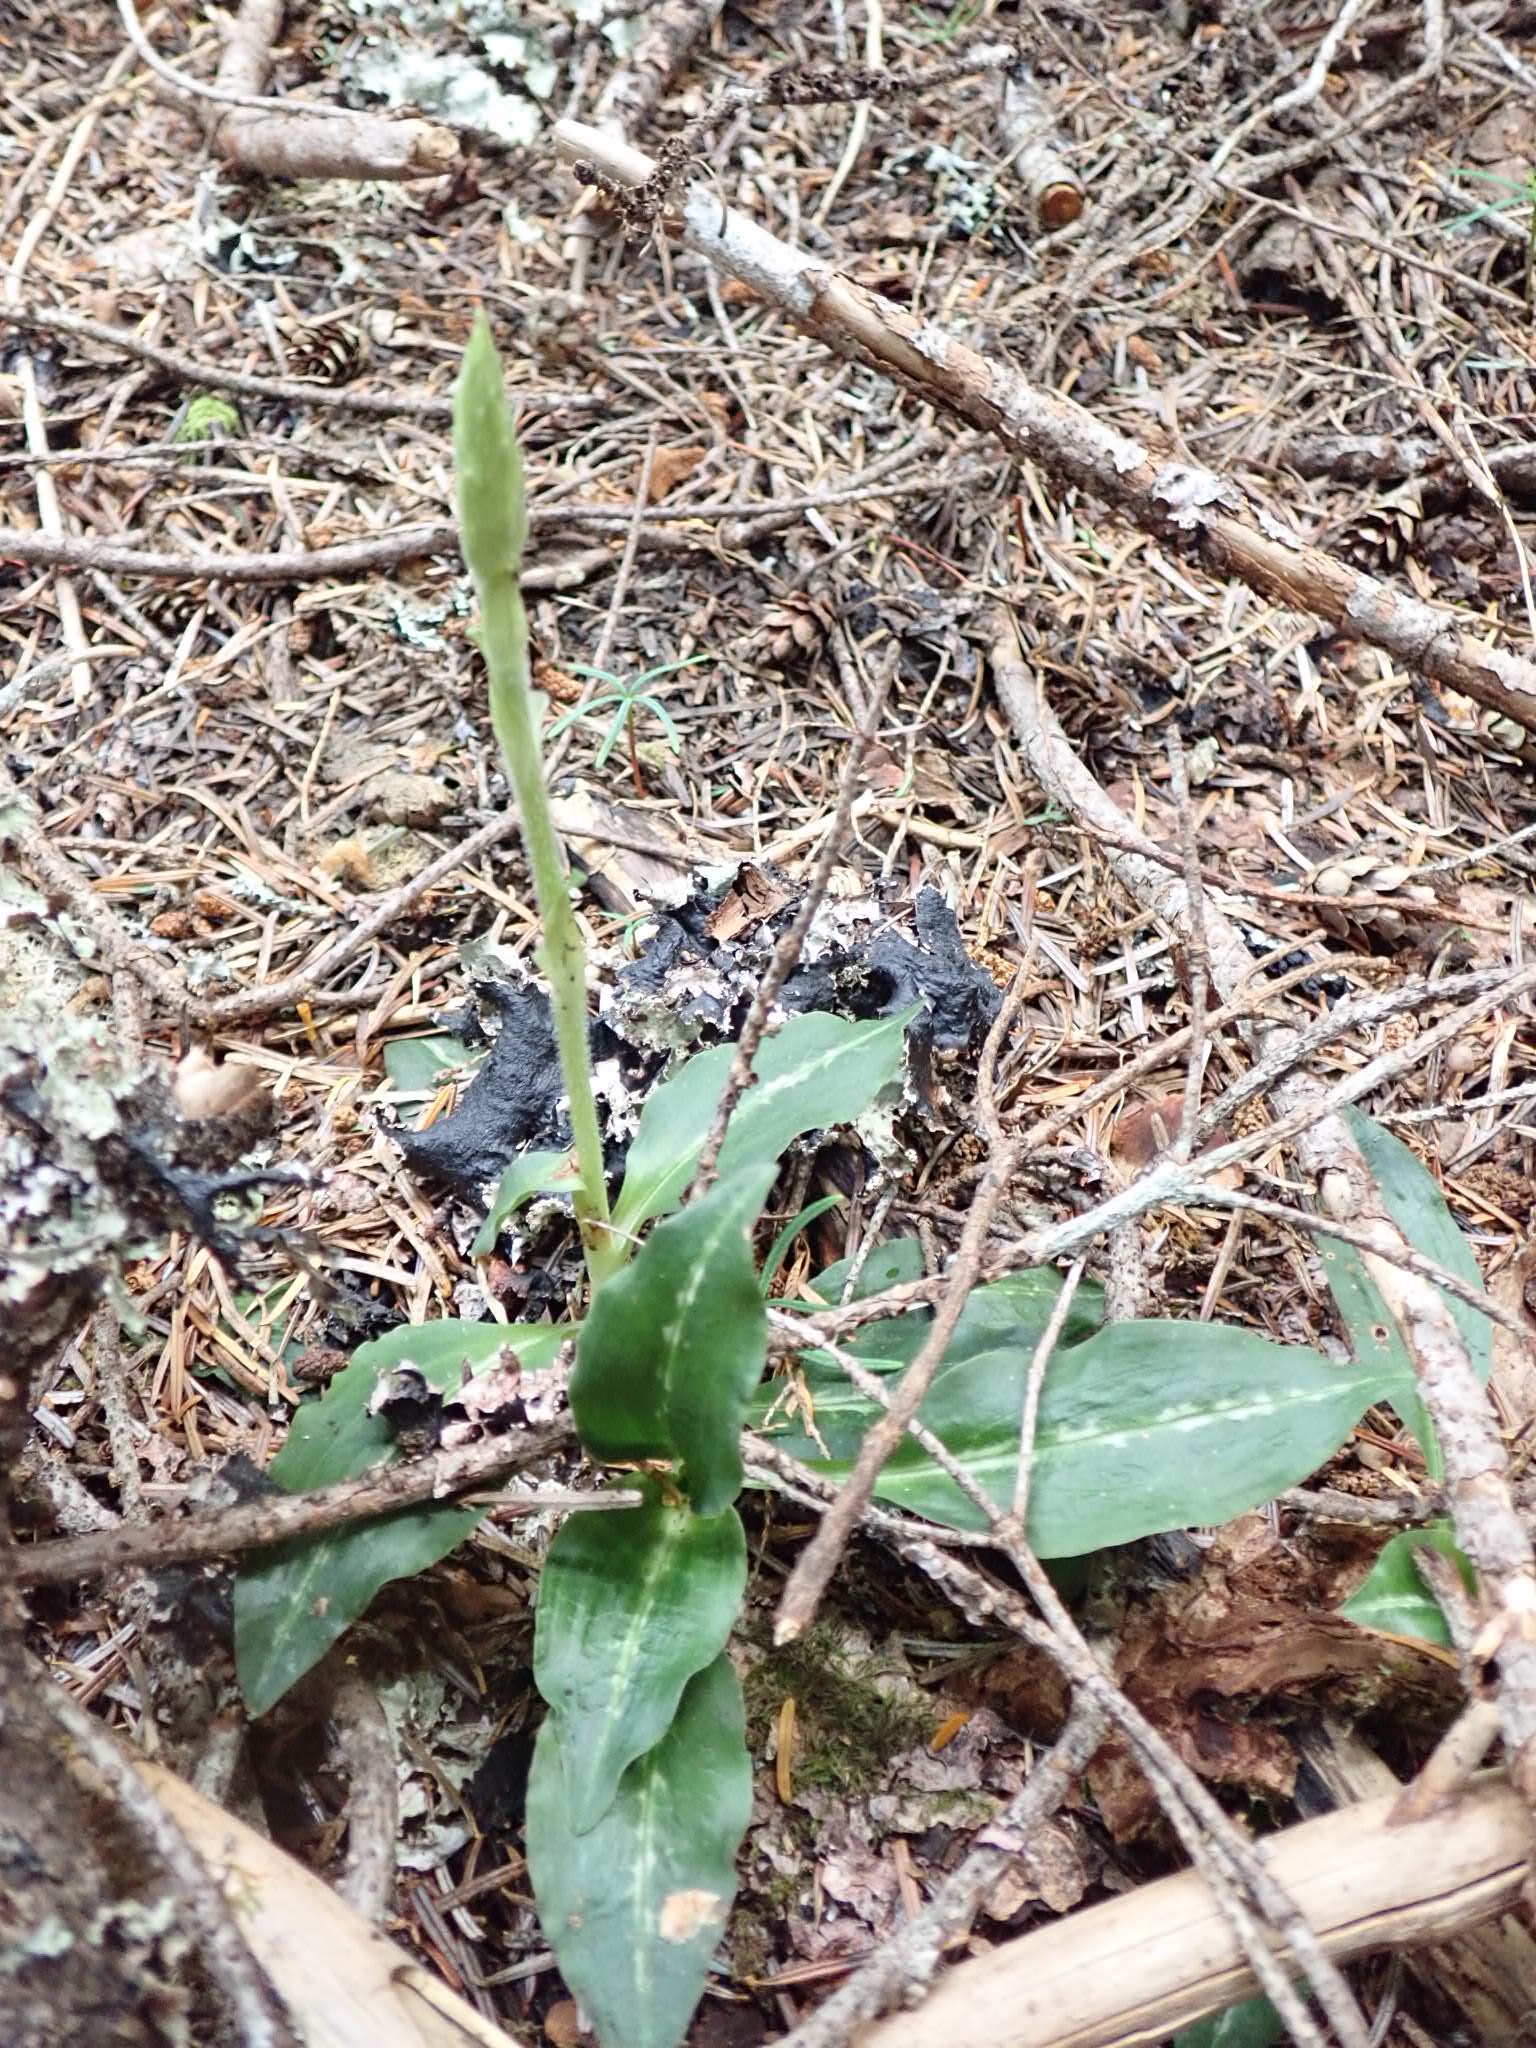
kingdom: Plantae
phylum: Tracheophyta
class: Liliopsida
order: Asparagales
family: Orchidaceae
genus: Goodyera
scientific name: Goodyera oblongifolia
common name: Giant rattlesnake-plantain
